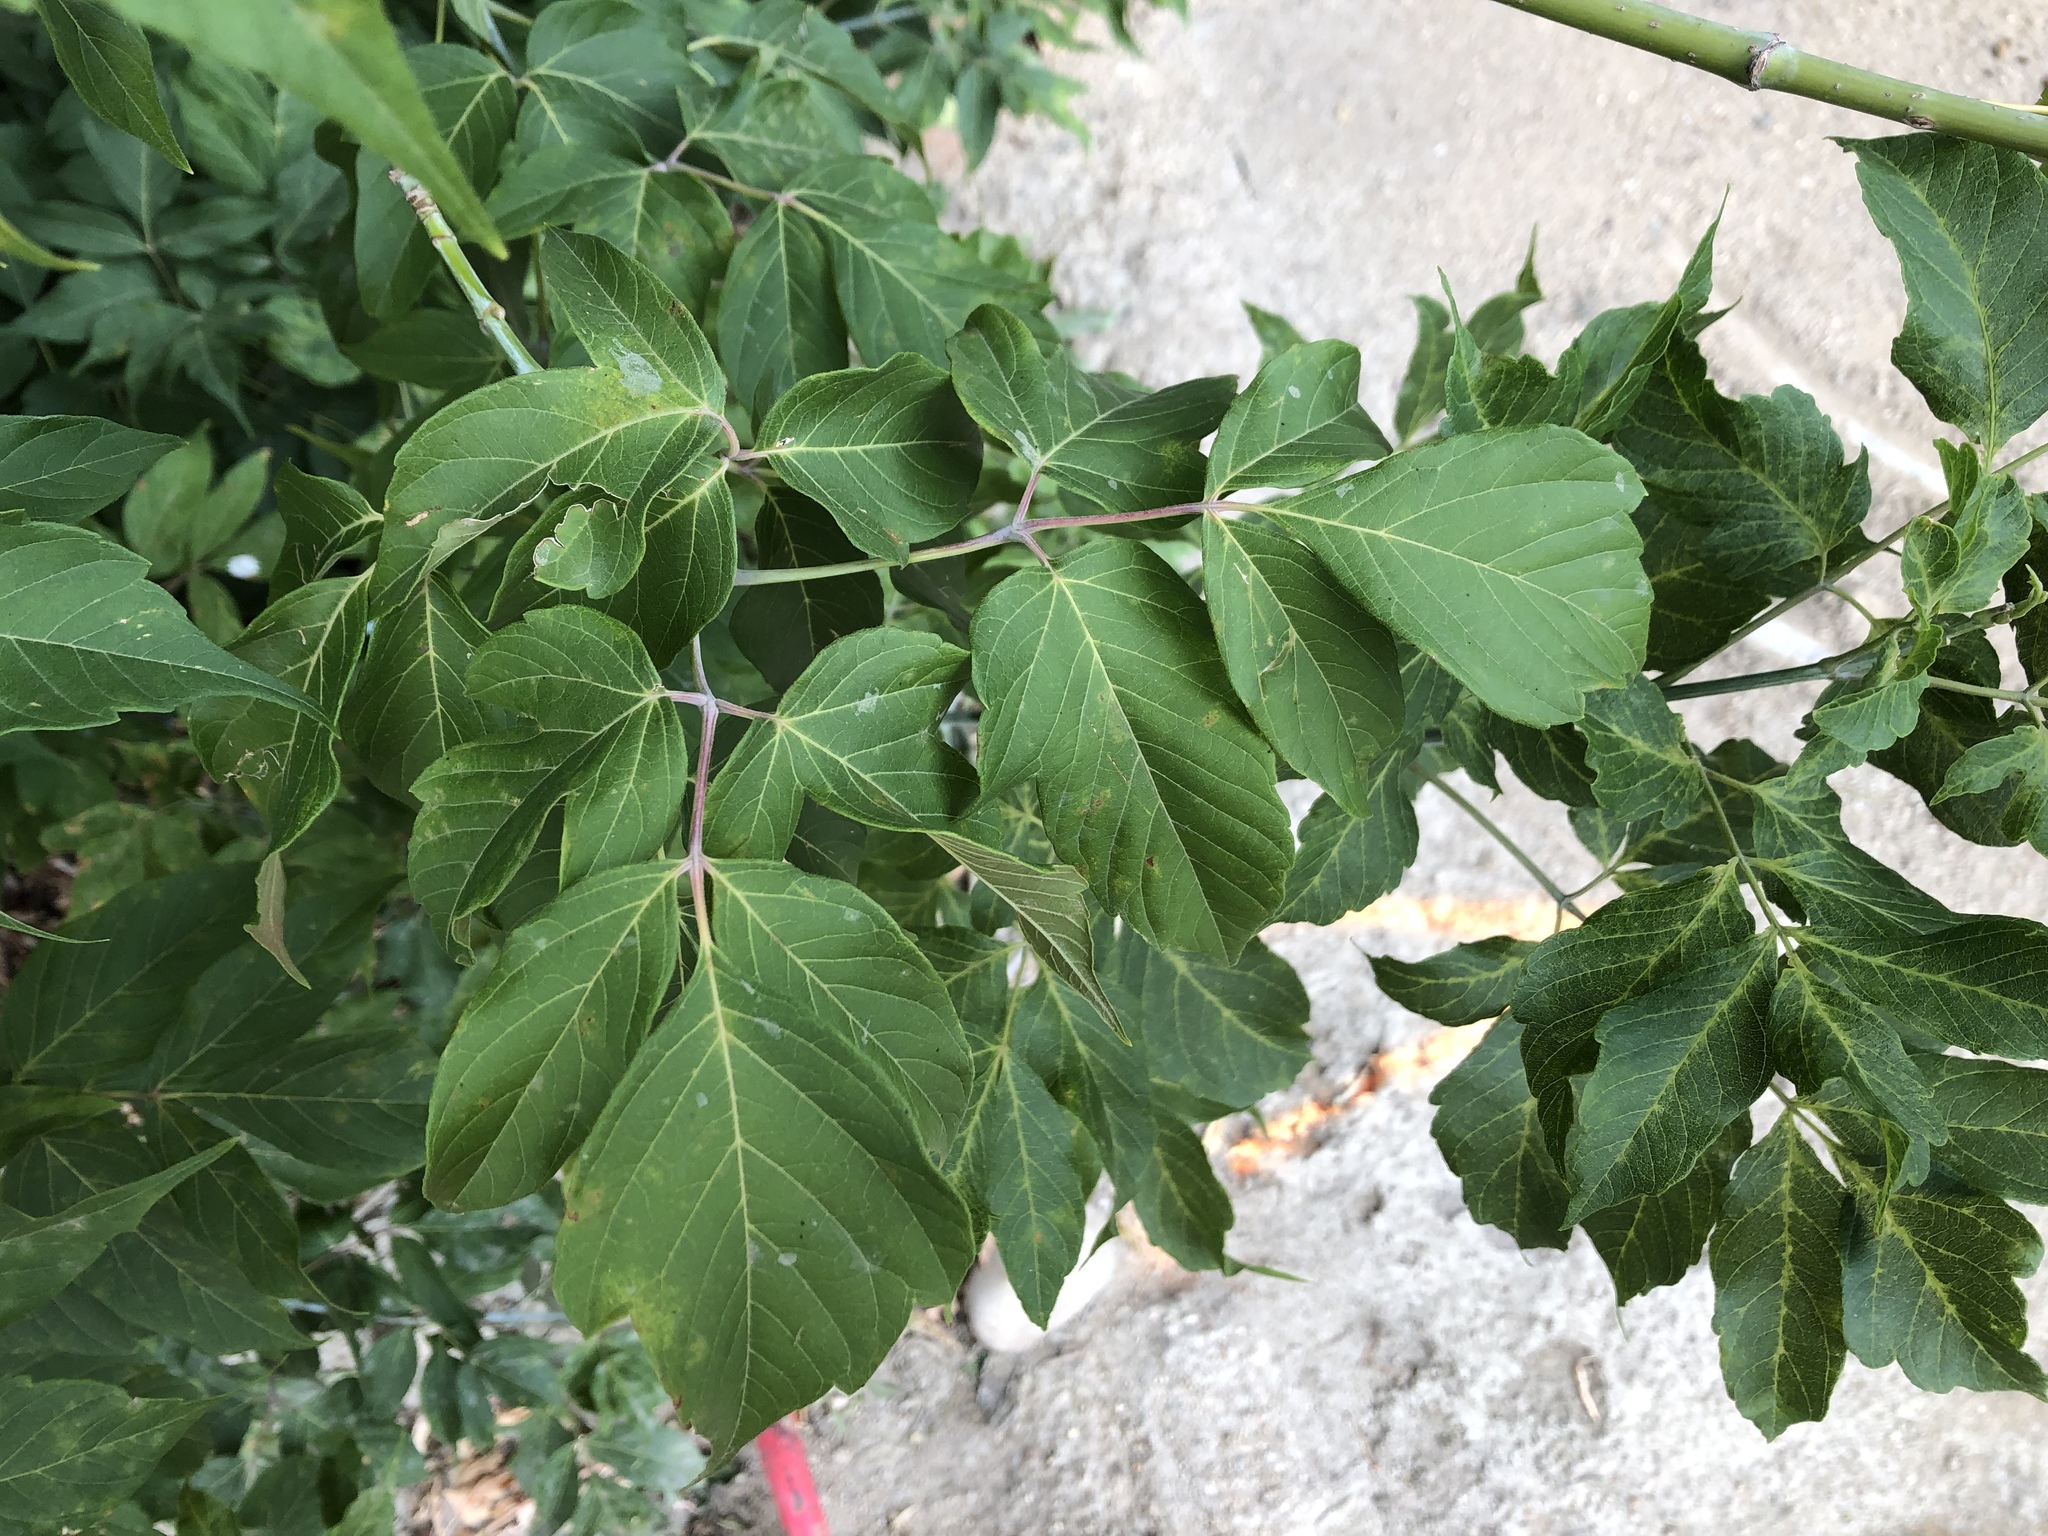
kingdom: Plantae
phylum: Tracheophyta
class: Magnoliopsida
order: Sapindales
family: Sapindaceae
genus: Acer
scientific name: Acer negundo
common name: Ashleaf maple
